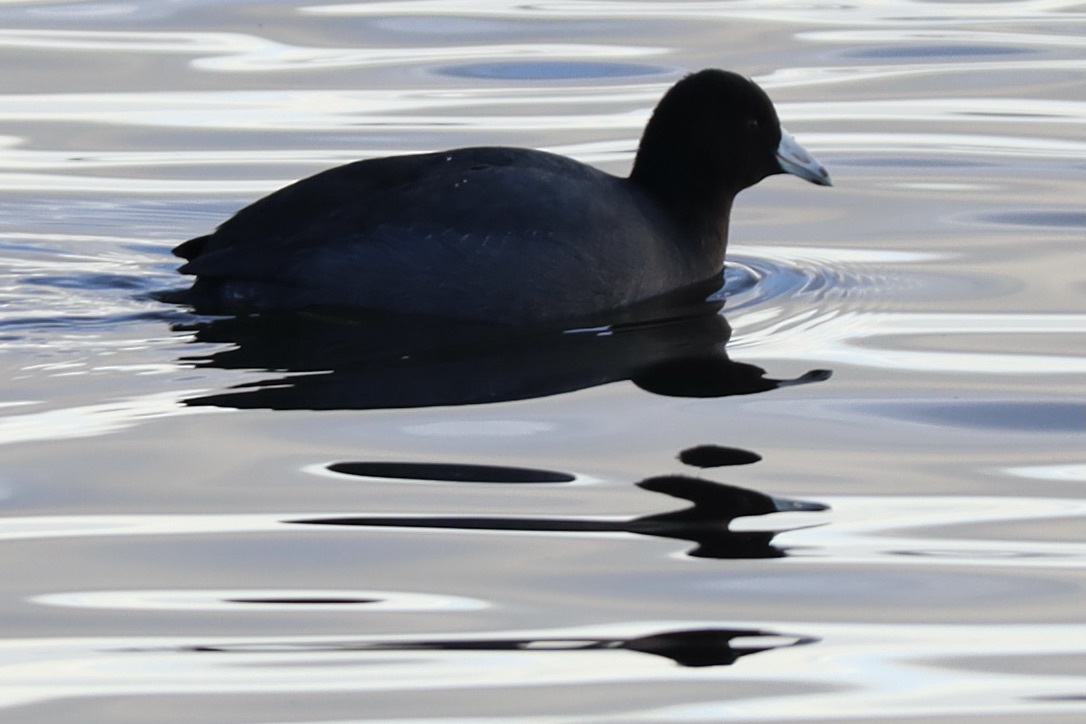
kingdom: Animalia
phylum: Chordata
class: Aves
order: Gruiformes
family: Rallidae
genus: Fulica
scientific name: Fulica americana
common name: American coot
